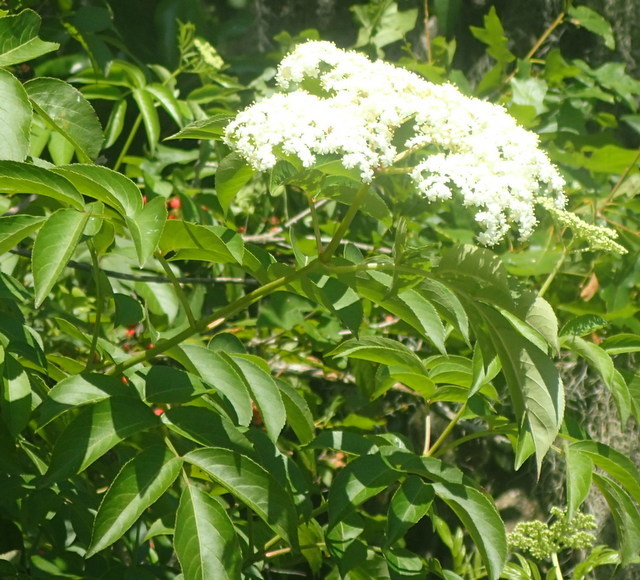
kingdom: Plantae
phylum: Tracheophyta
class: Magnoliopsida
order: Dipsacales
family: Viburnaceae
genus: Sambucus
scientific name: Sambucus canadensis
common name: American elder
